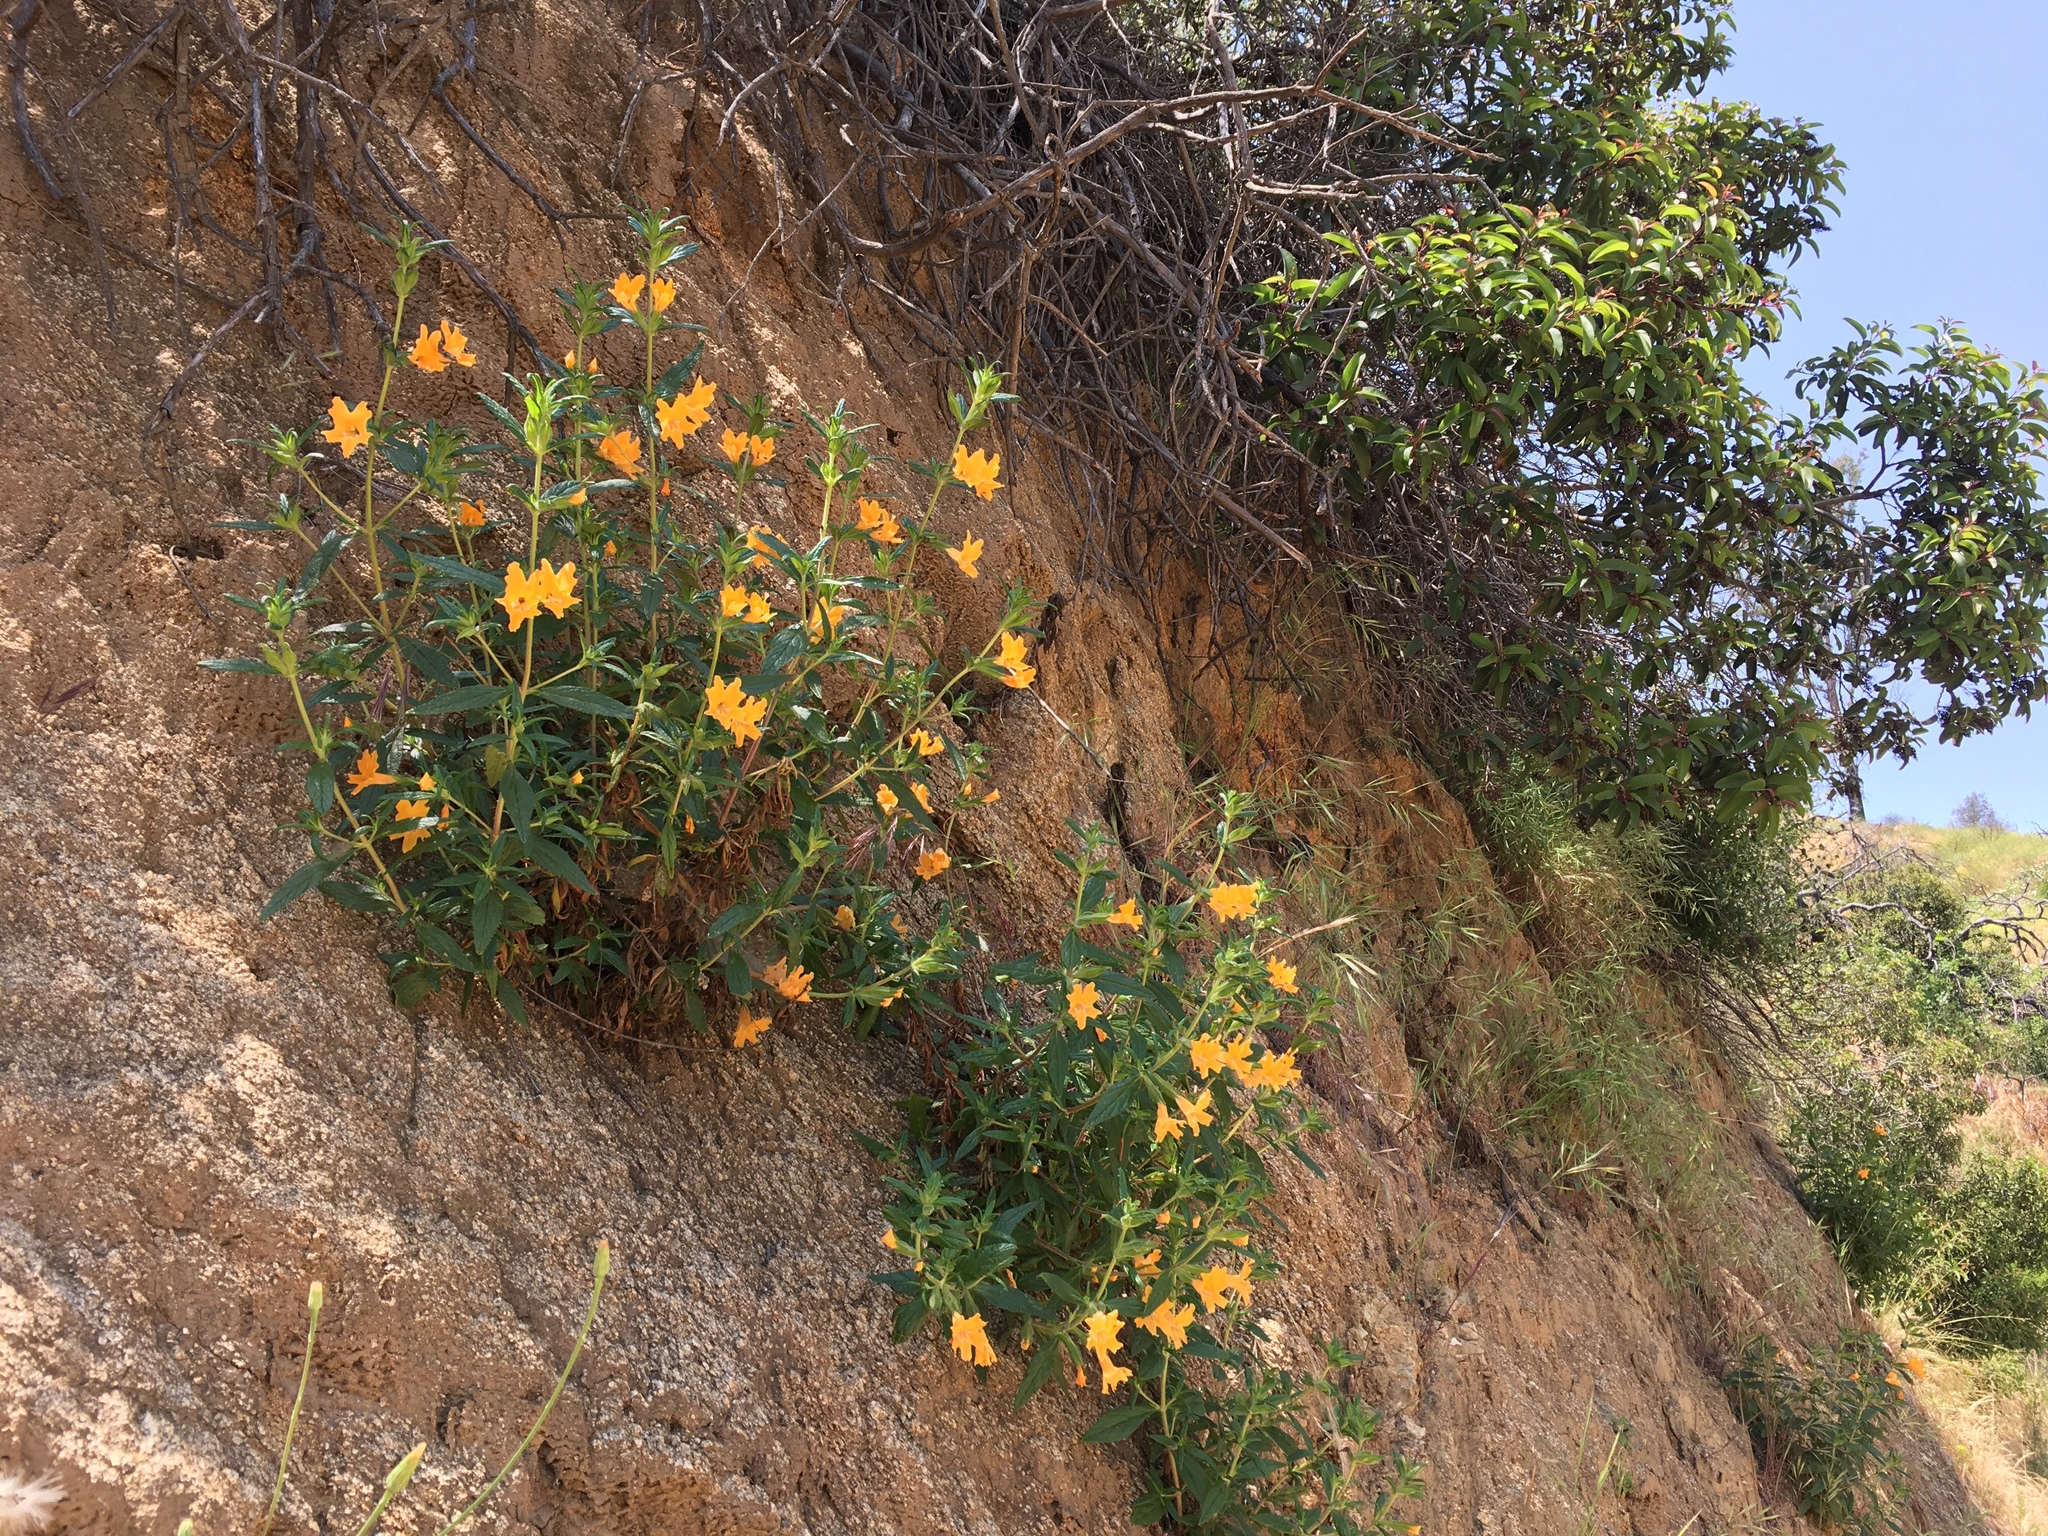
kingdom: Plantae
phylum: Tracheophyta
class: Magnoliopsida
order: Lamiales
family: Phrymaceae
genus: Diplacus
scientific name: Diplacus longiflorus
